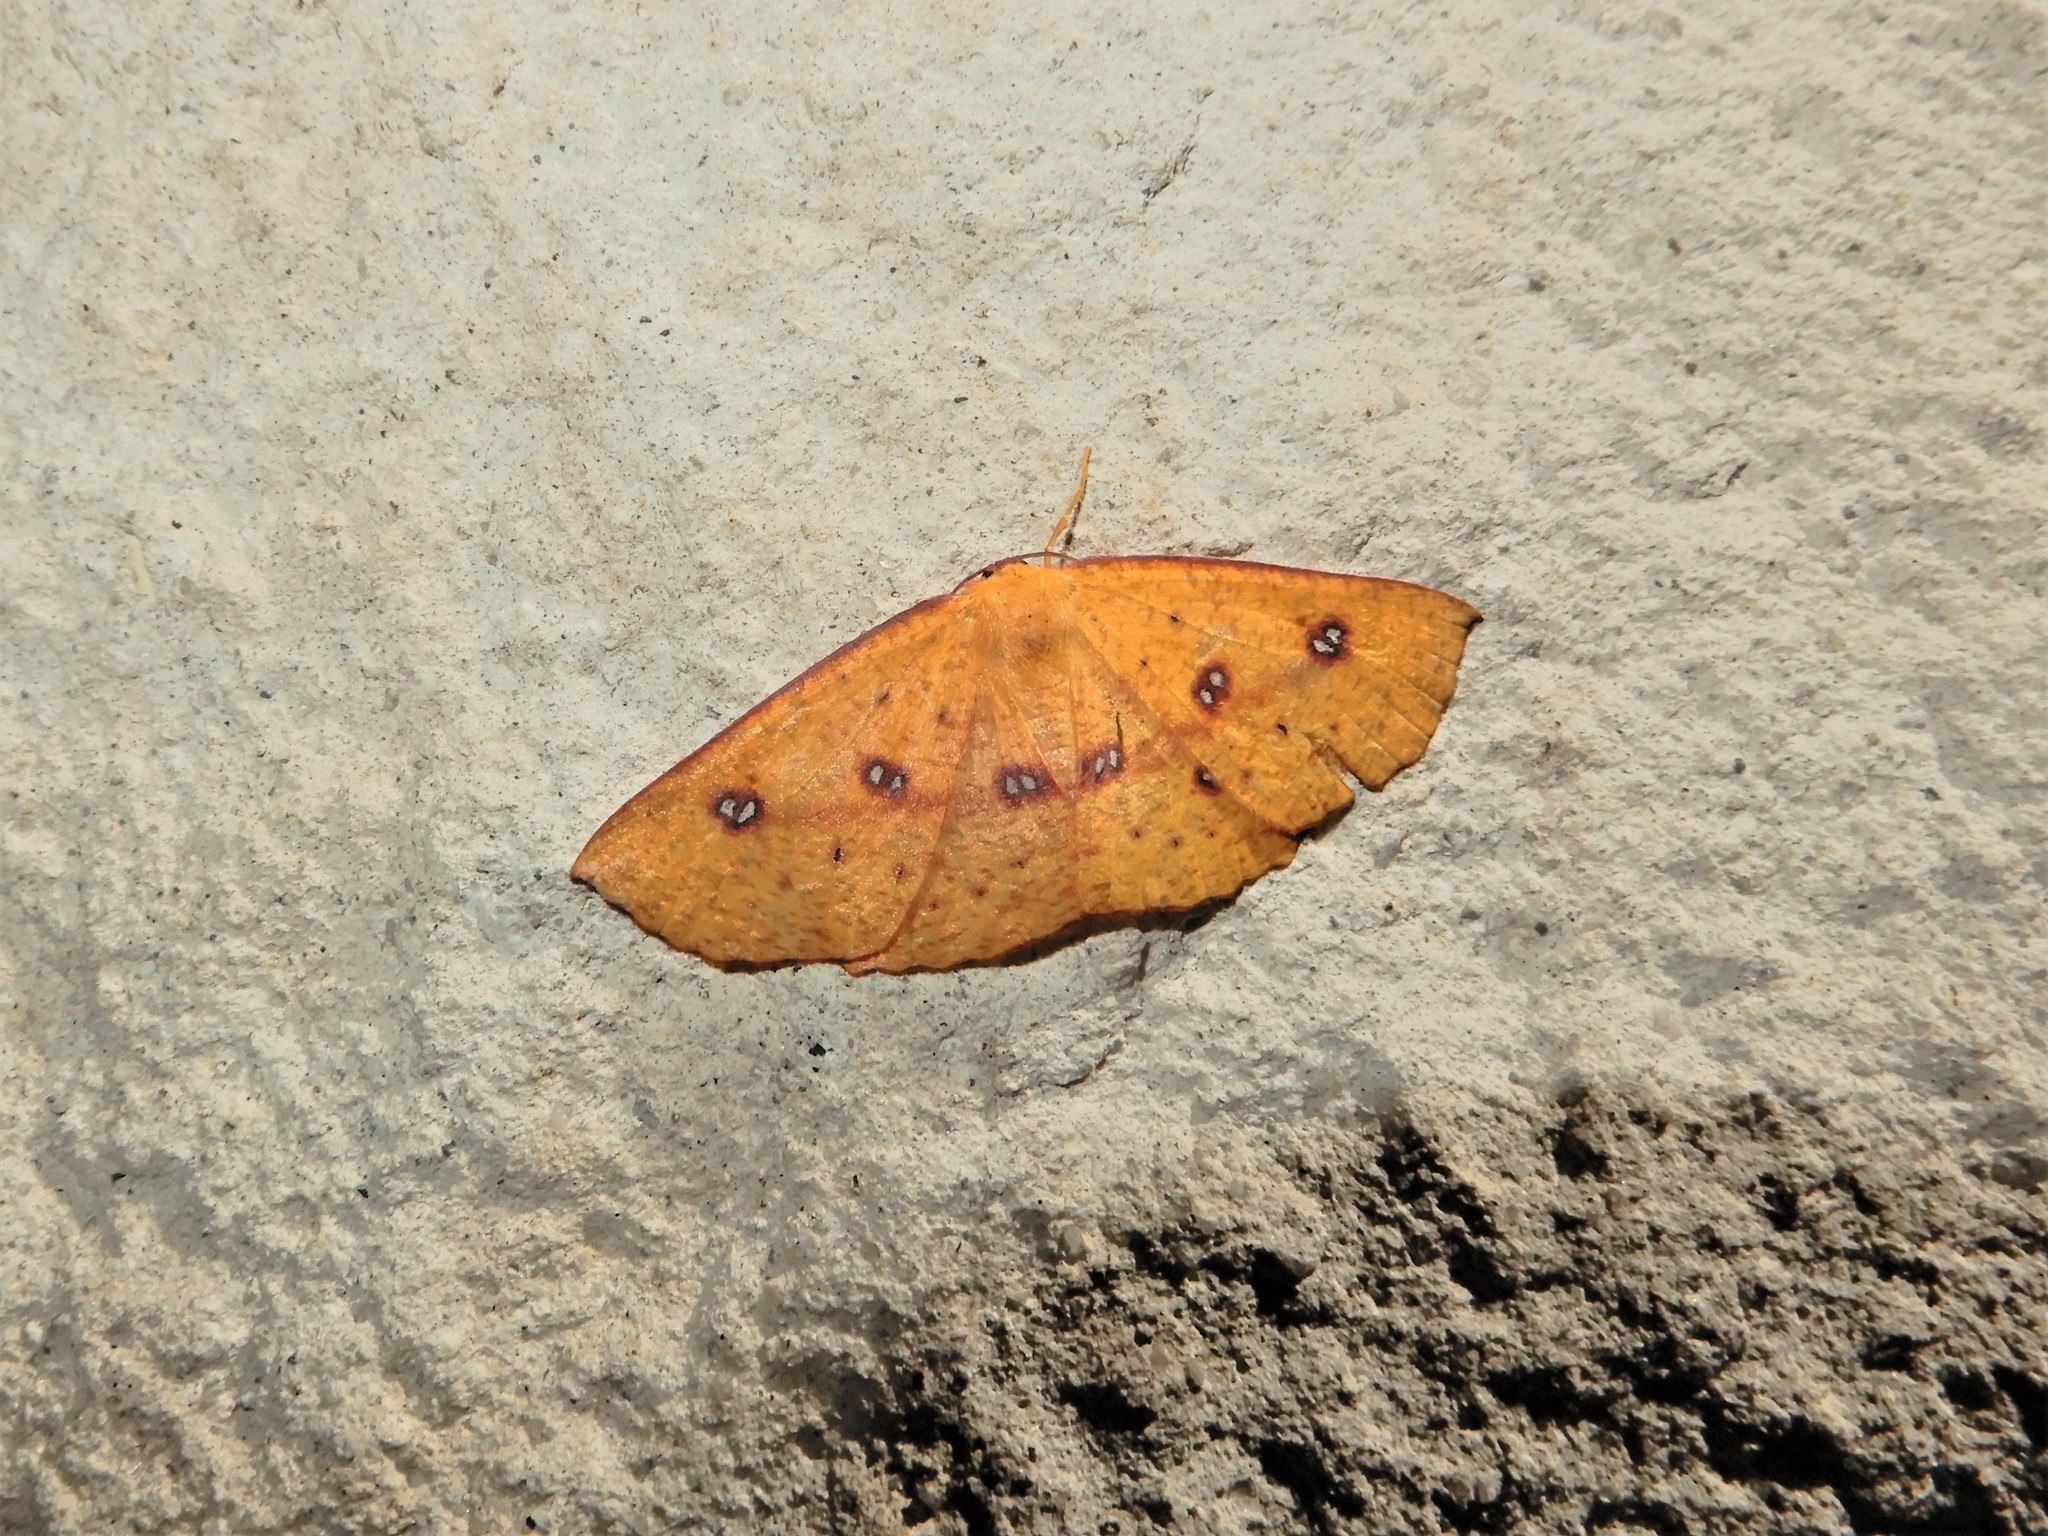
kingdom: Animalia
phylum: Arthropoda
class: Insecta
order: Lepidoptera
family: Geometridae
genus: Xyridacma
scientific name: Xyridacma alectoraria
